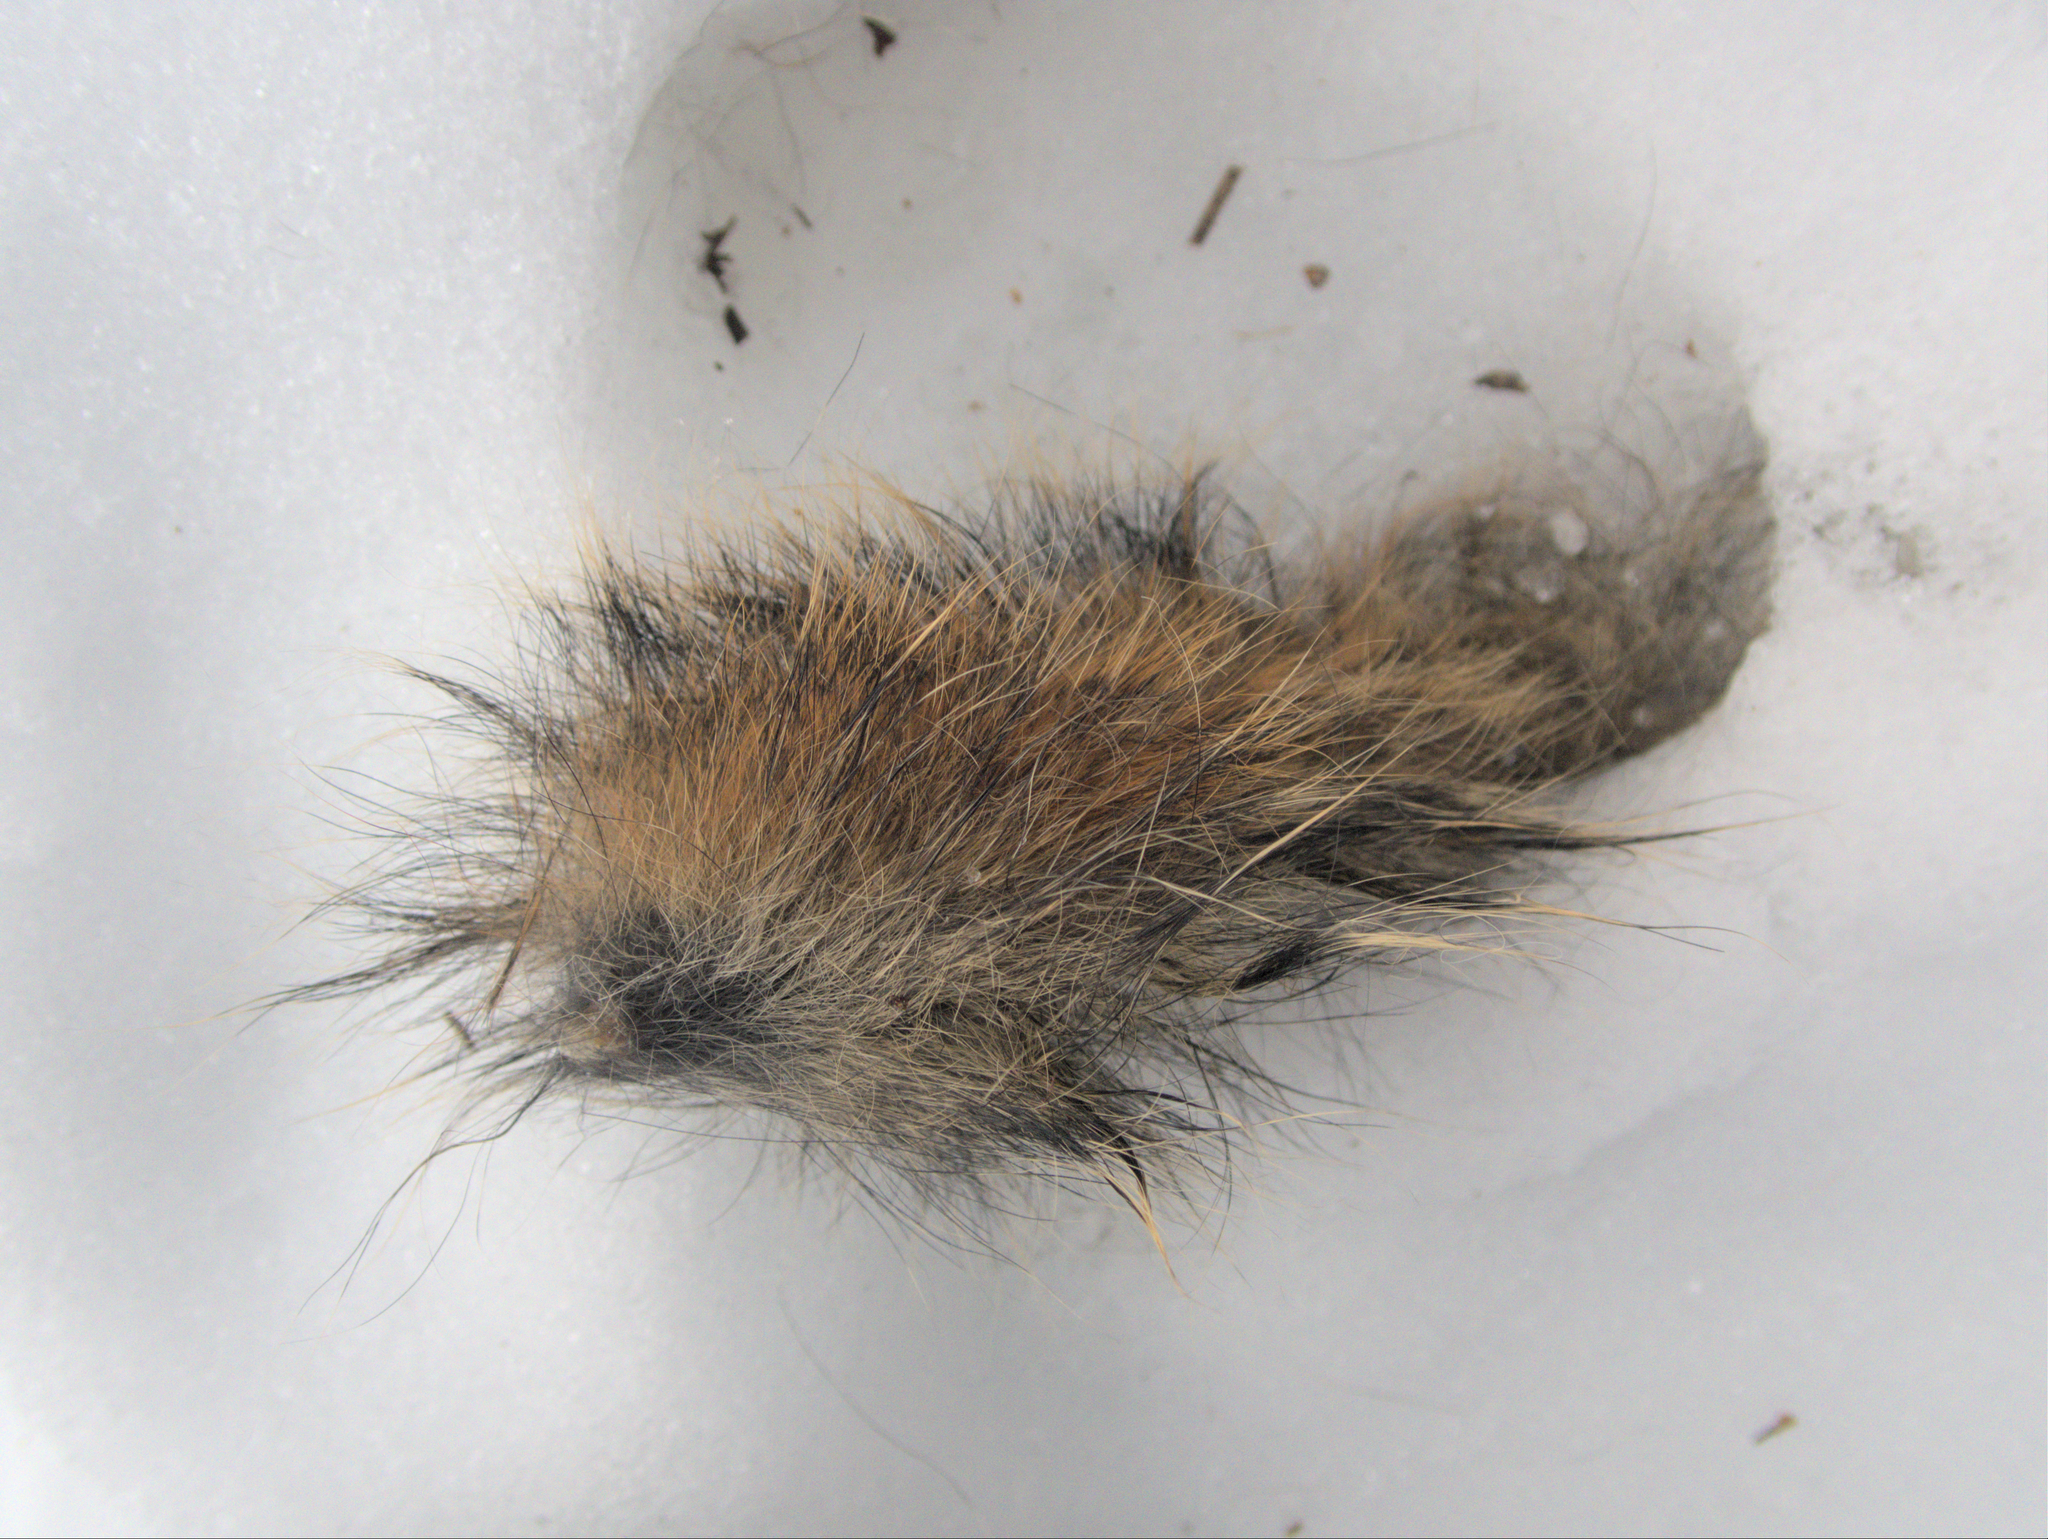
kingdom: Animalia
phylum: Chordata
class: Mammalia
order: Rodentia
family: Sciuridae
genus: Tamiasciurus
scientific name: Tamiasciurus hudsonicus
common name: Red squirrel
